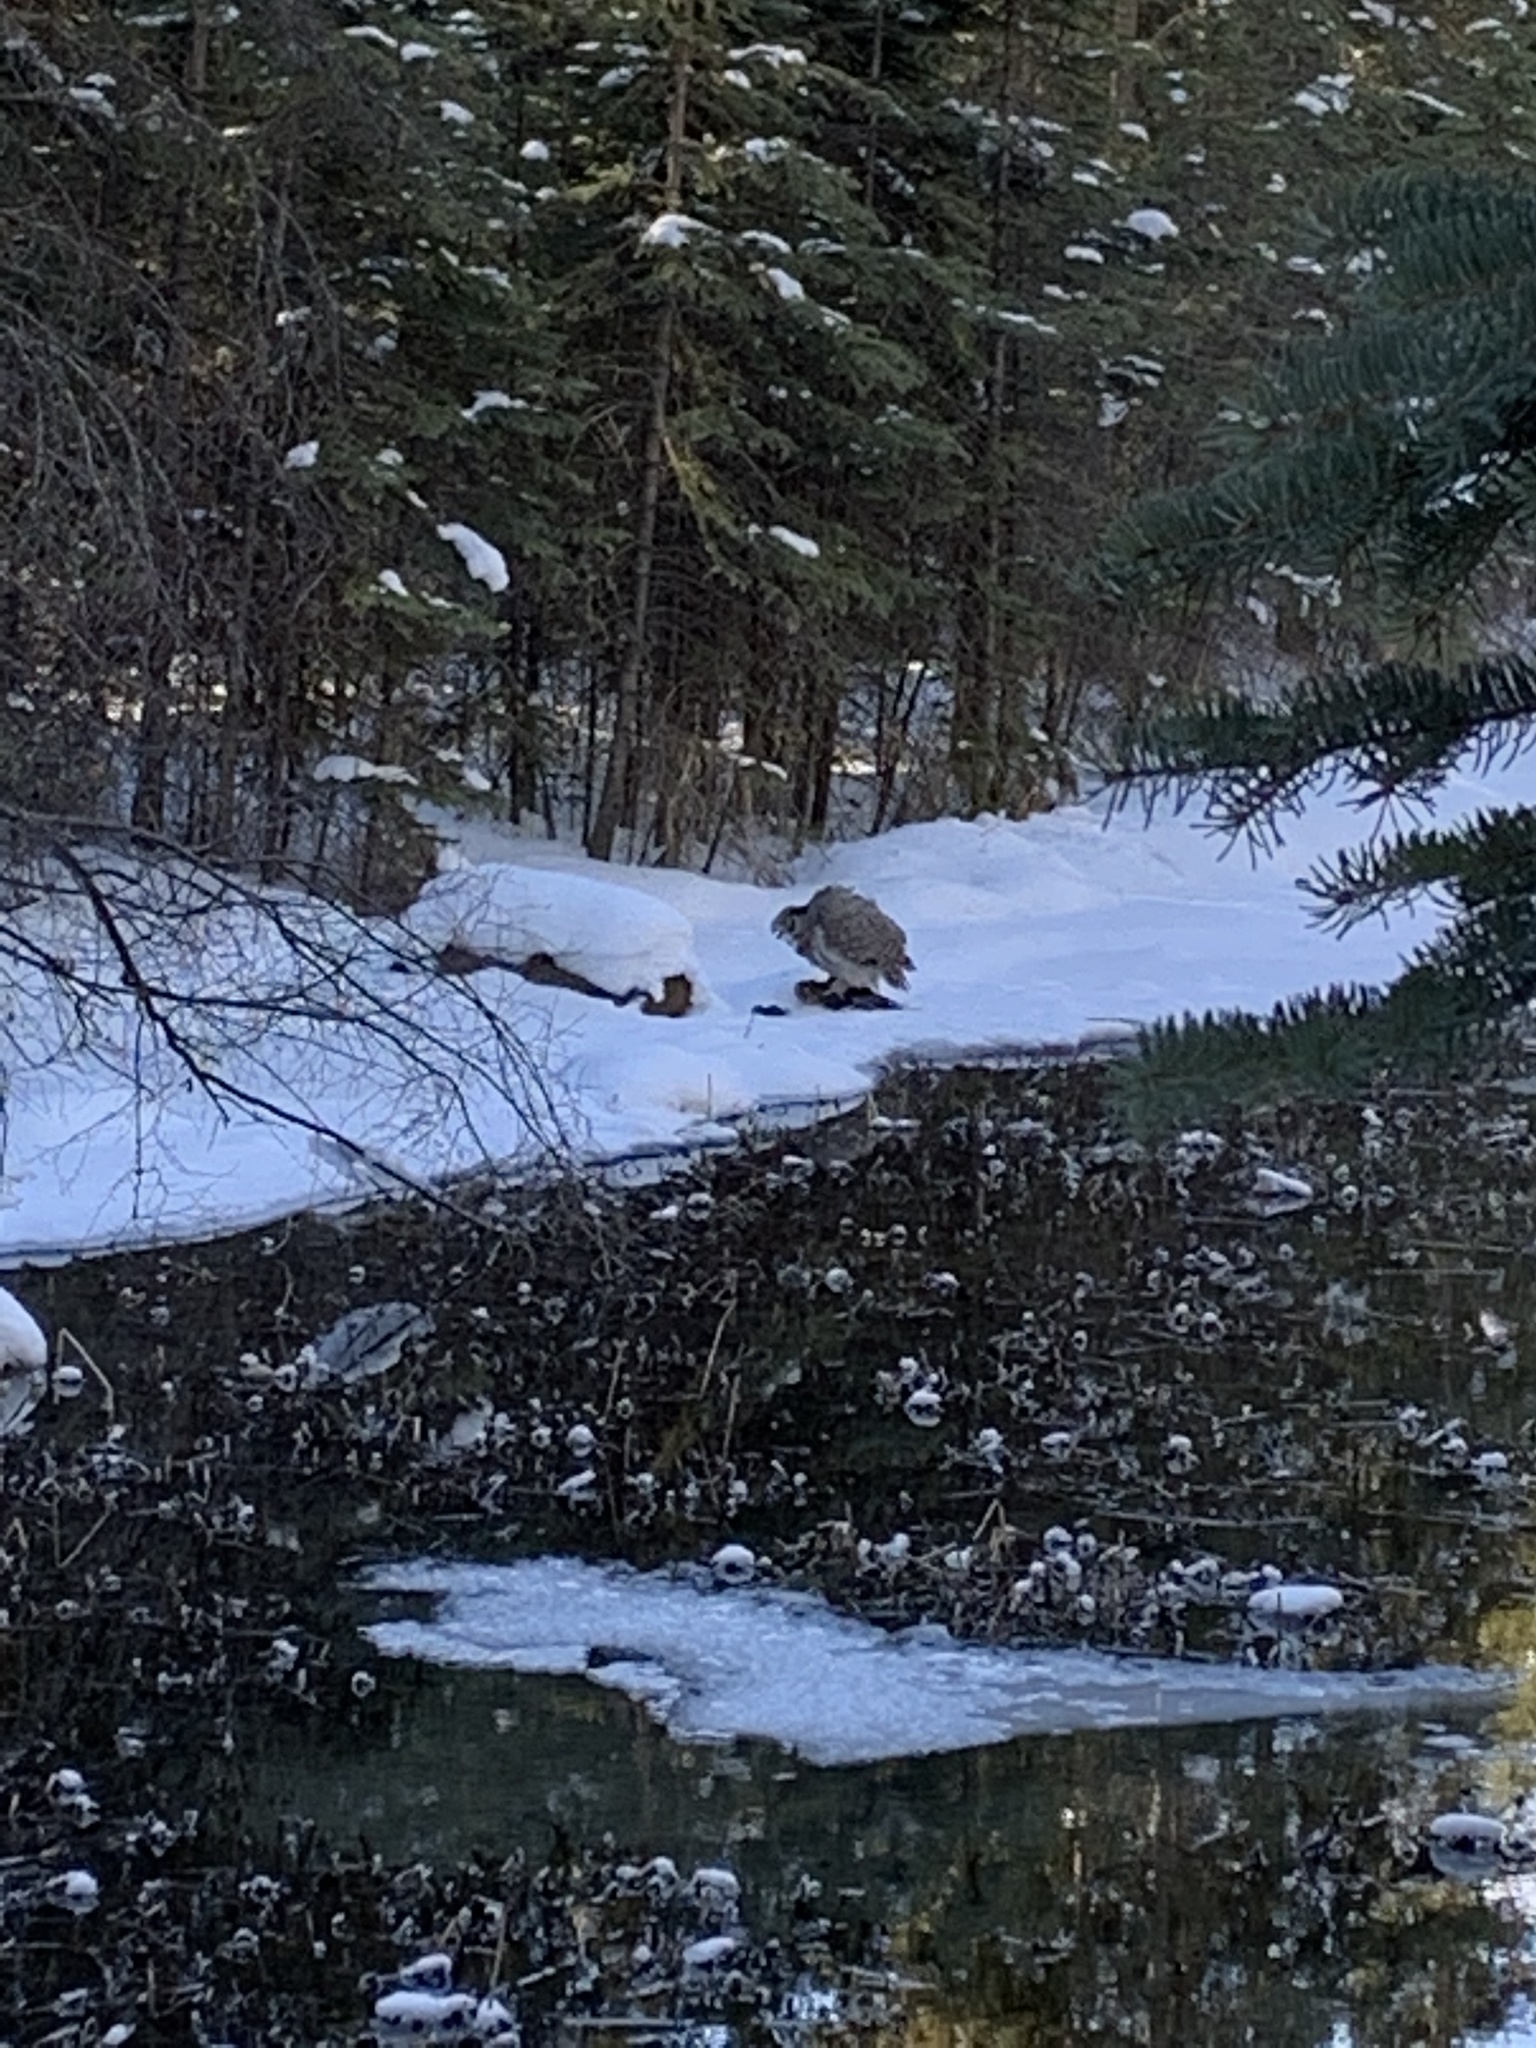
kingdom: Animalia
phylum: Chordata
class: Aves
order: Strigiformes
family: Strigidae
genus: Bubo
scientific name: Bubo virginianus
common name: Great horned owl
